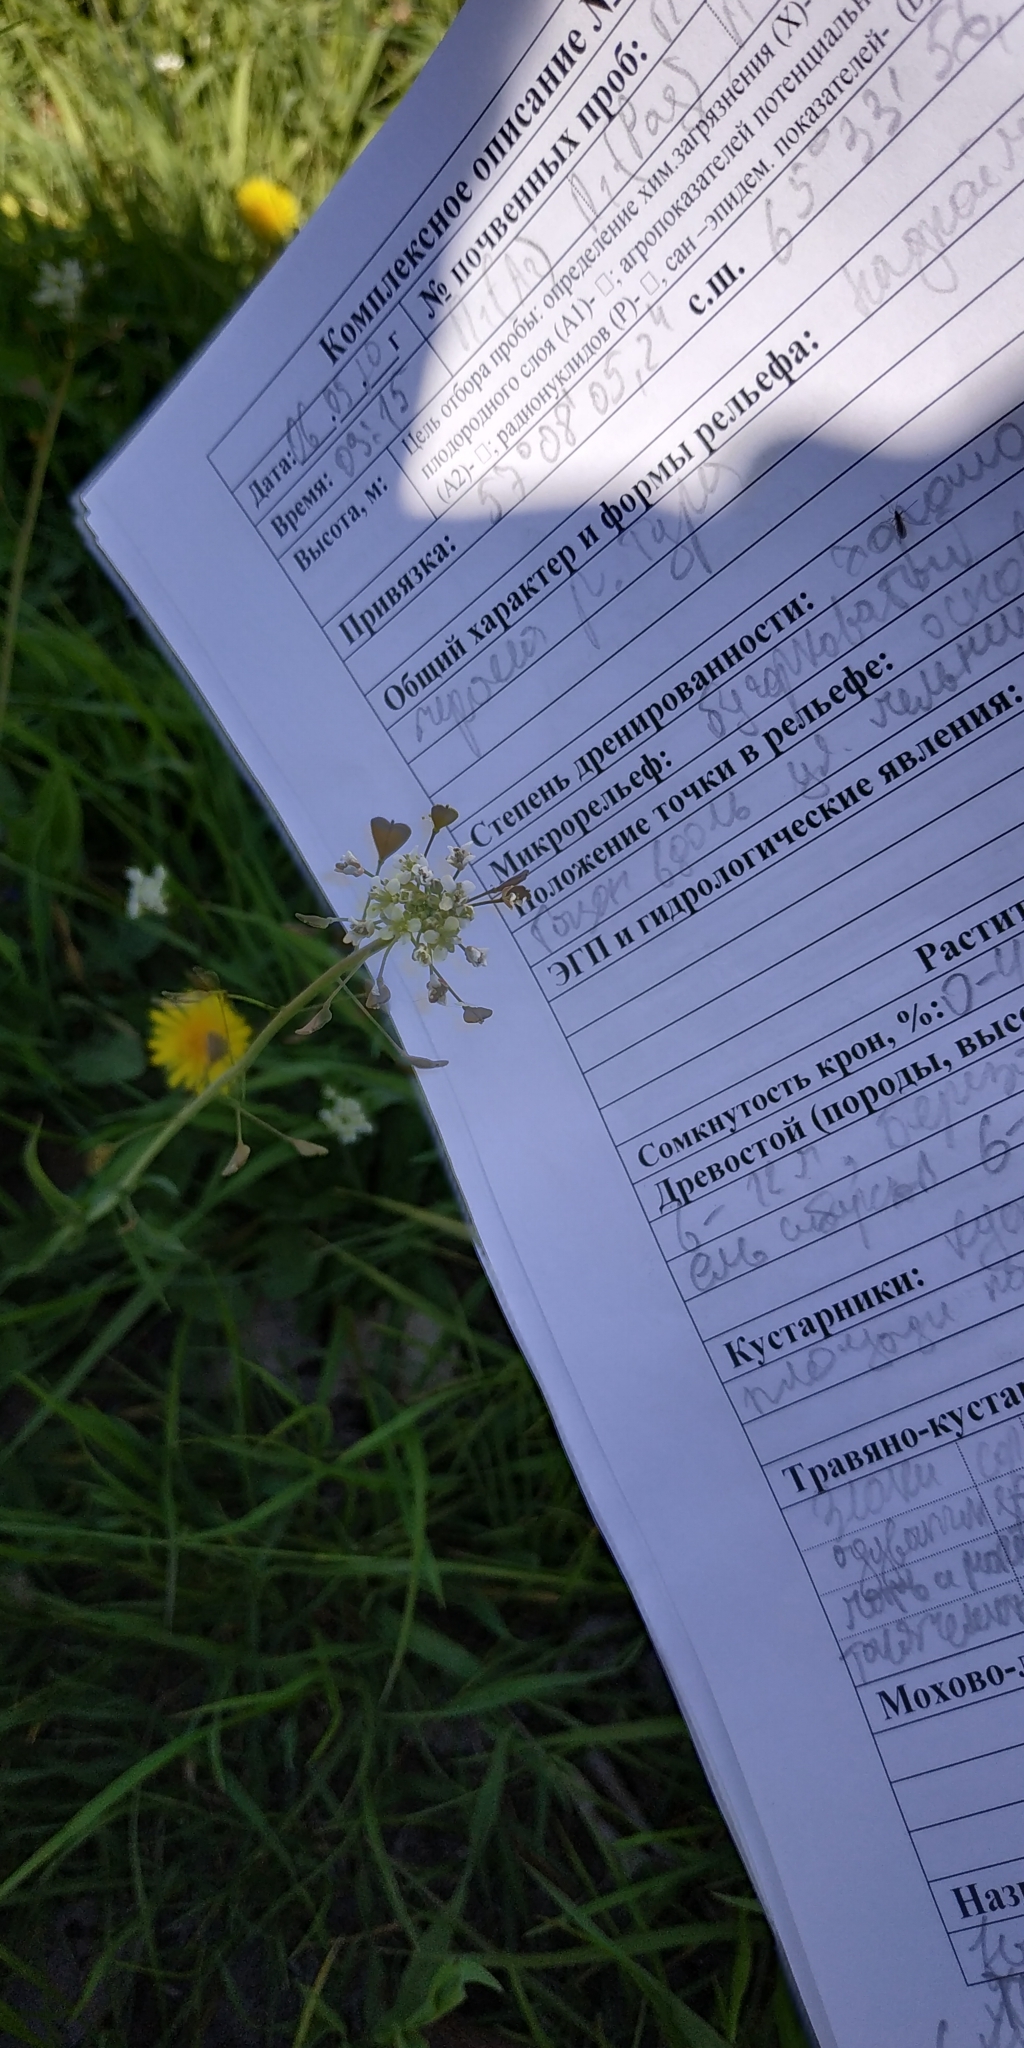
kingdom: Plantae
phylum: Tracheophyta
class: Magnoliopsida
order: Brassicales
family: Brassicaceae
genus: Capsella
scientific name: Capsella bursa-pastoris
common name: Shepherd's purse
